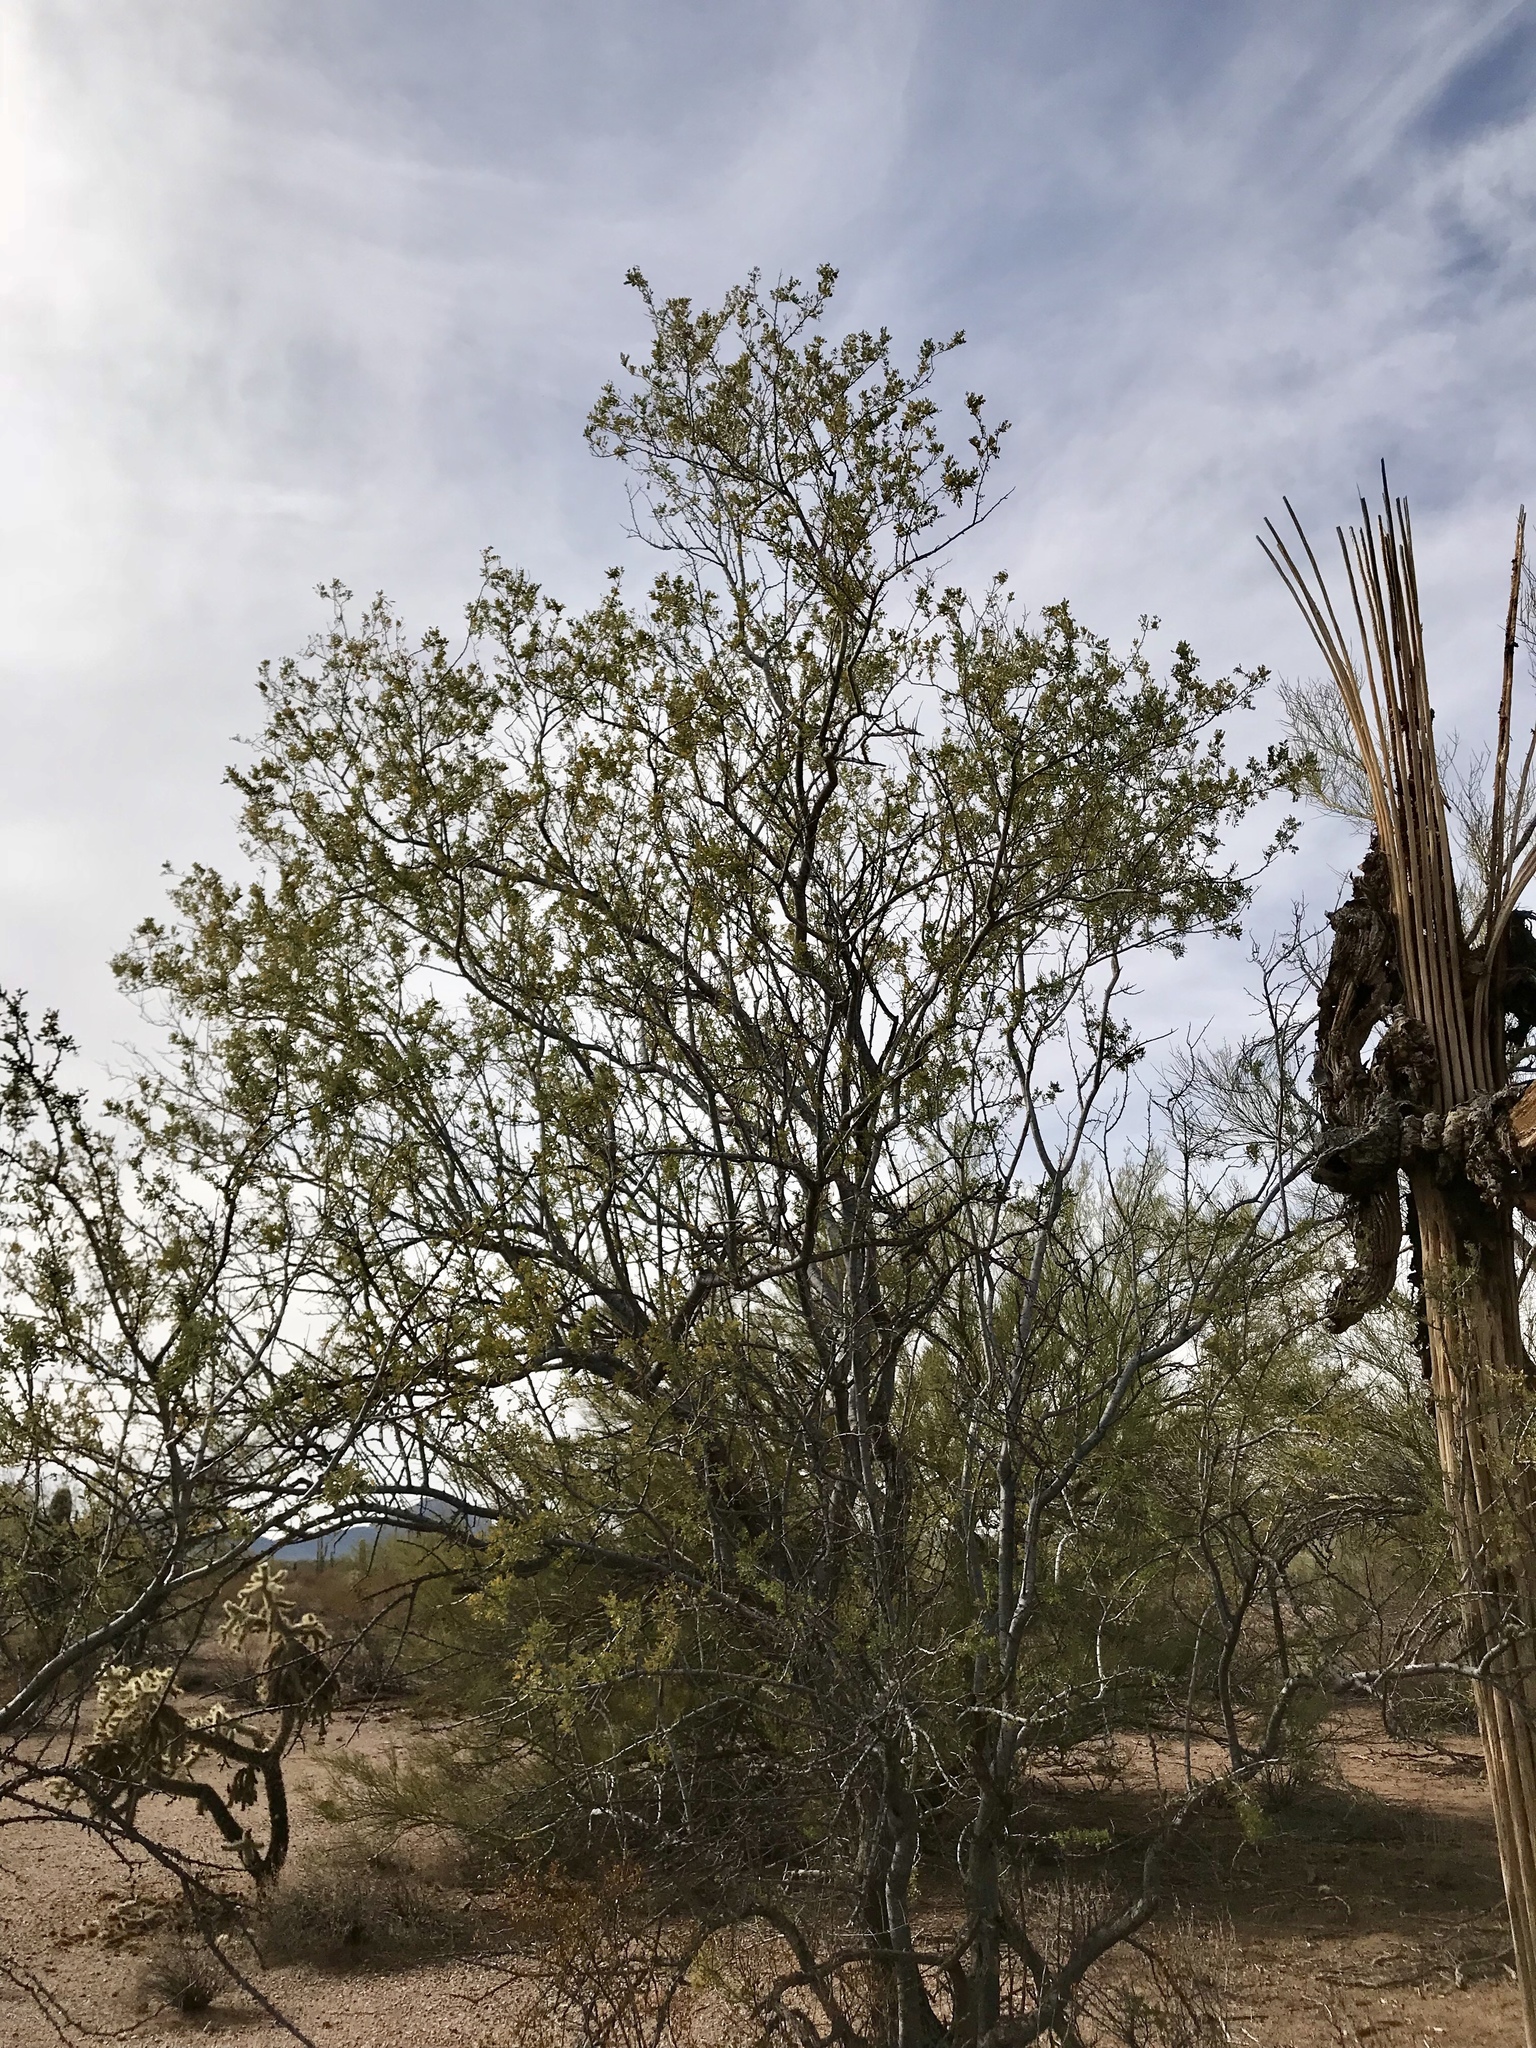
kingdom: Plantae
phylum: Tracheophyta
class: Magnoliopsida
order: Fabales
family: Fabaceae
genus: Olneya
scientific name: Olneya tesota
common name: Desert ironwood
